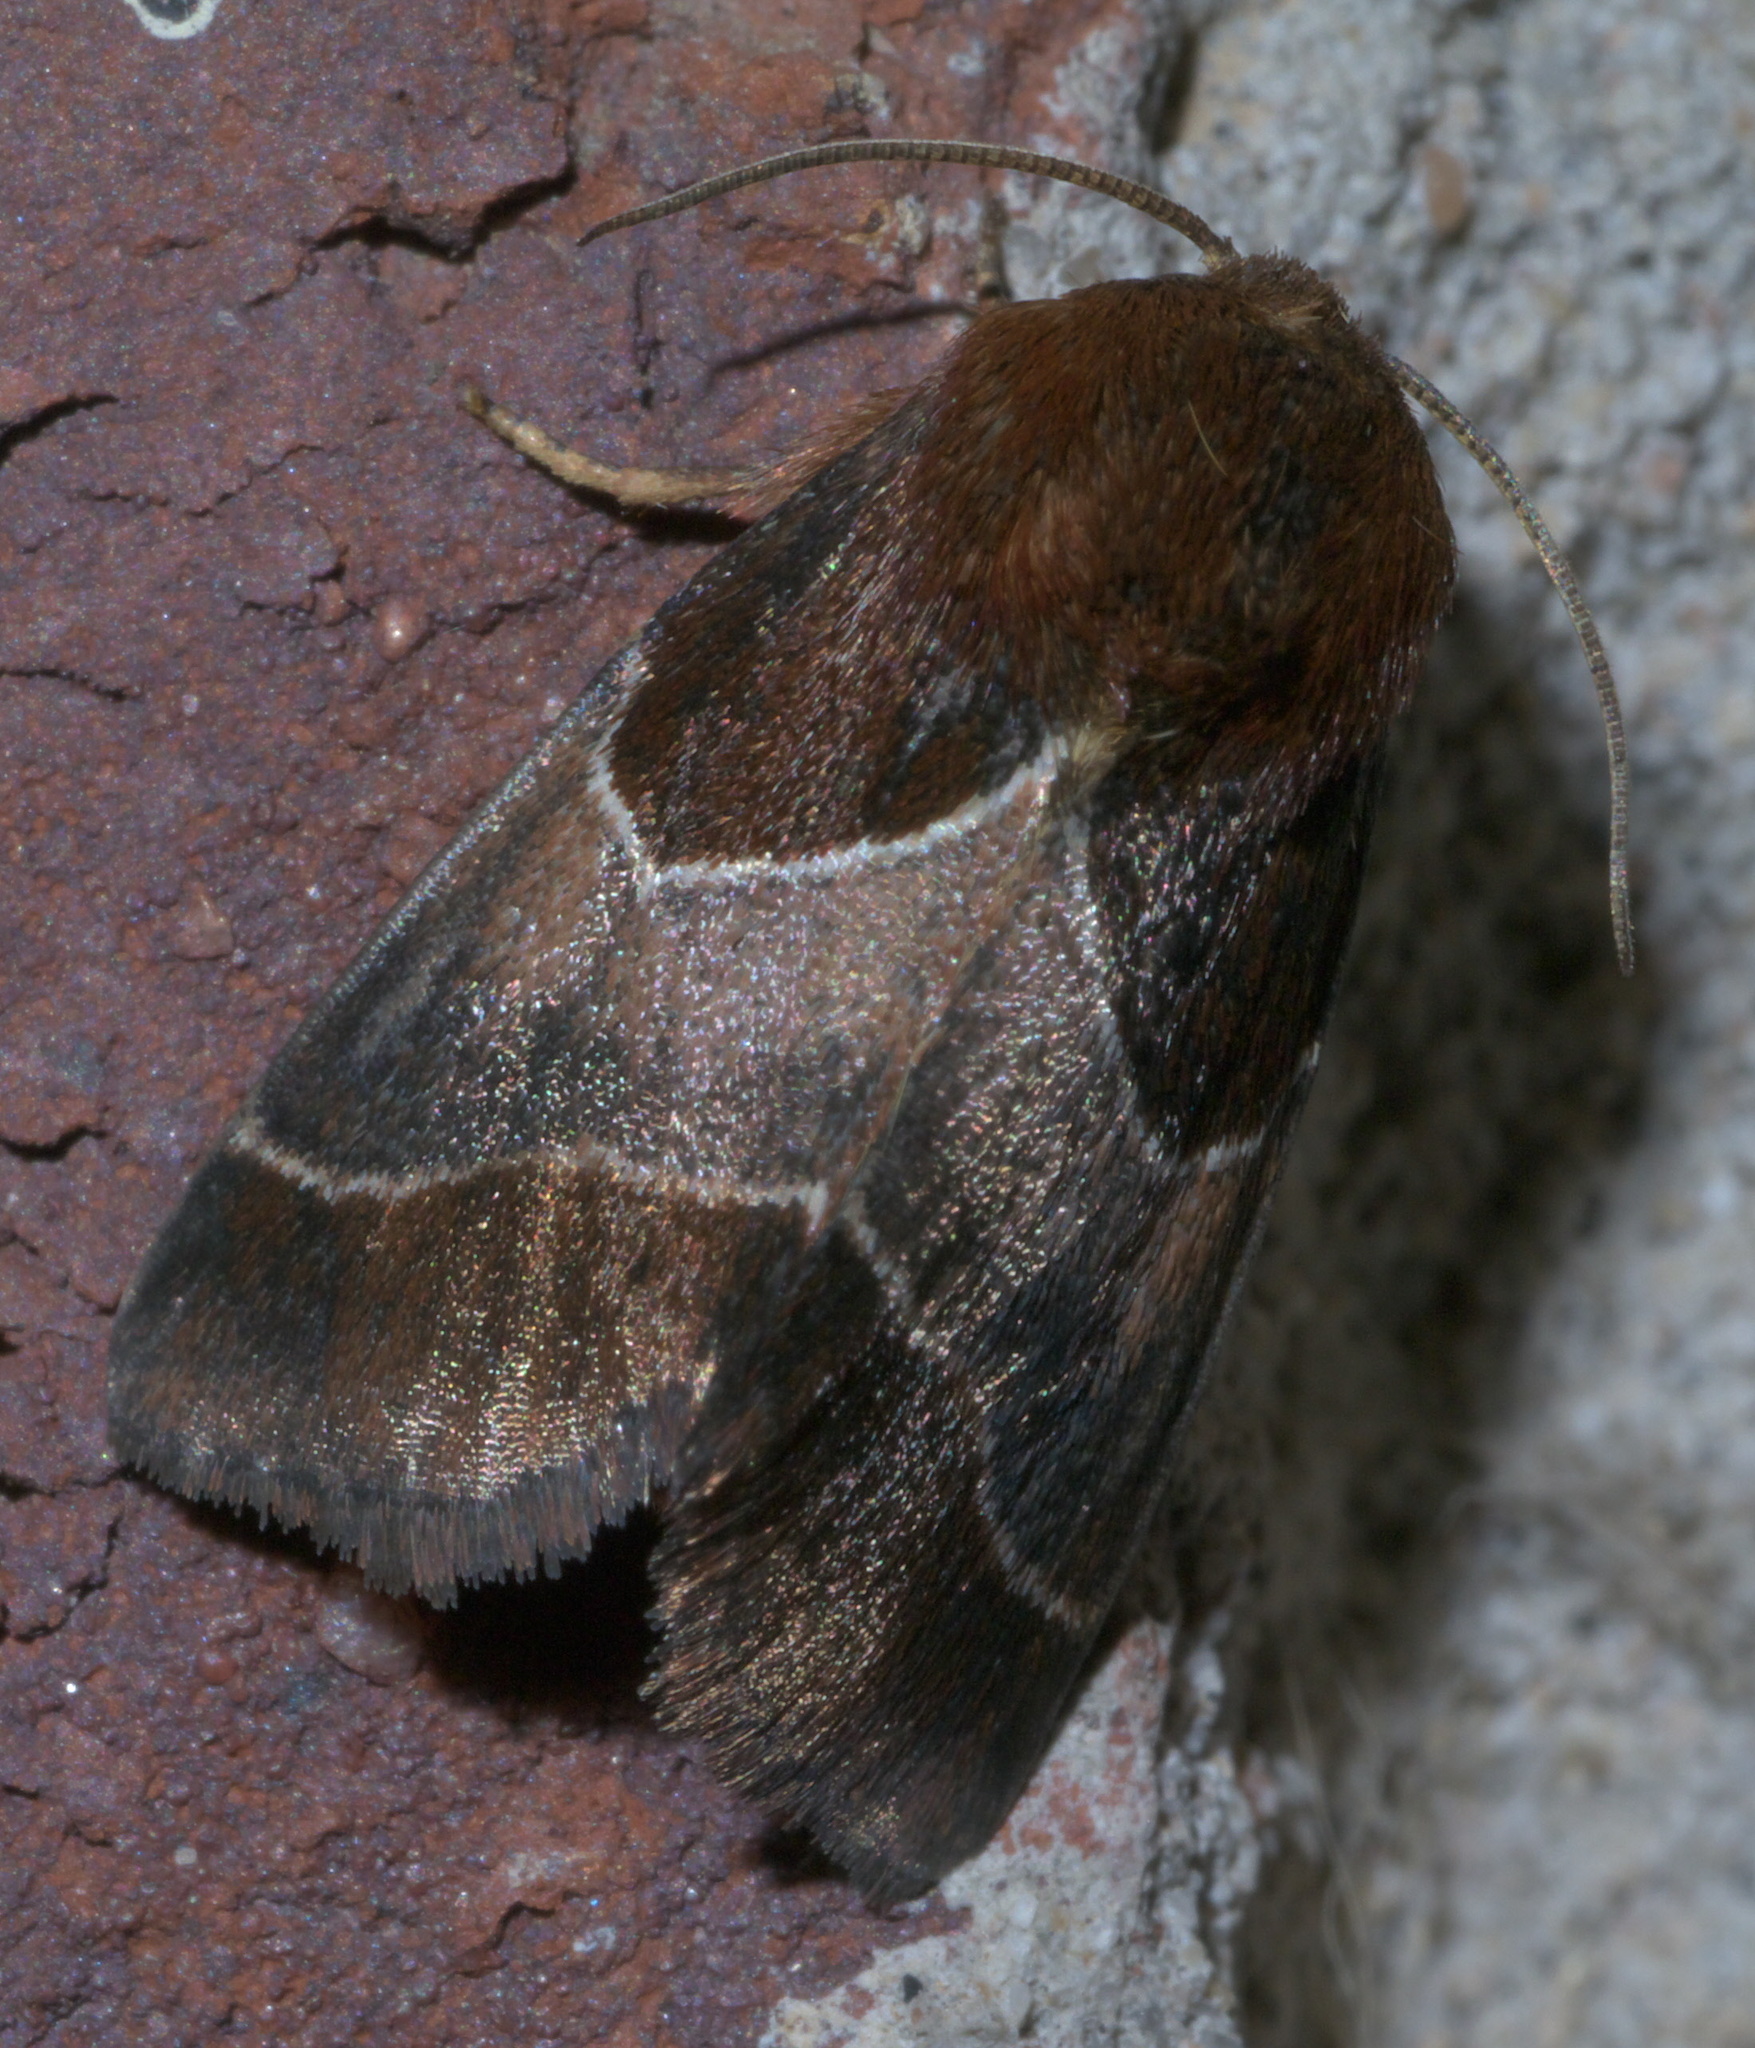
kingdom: Animalia
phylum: Arthropoda
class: Insecta
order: Lepidoptera
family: Noctuidae
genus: Schinia
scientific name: Schinia arcigera
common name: Arcigera flower moth
